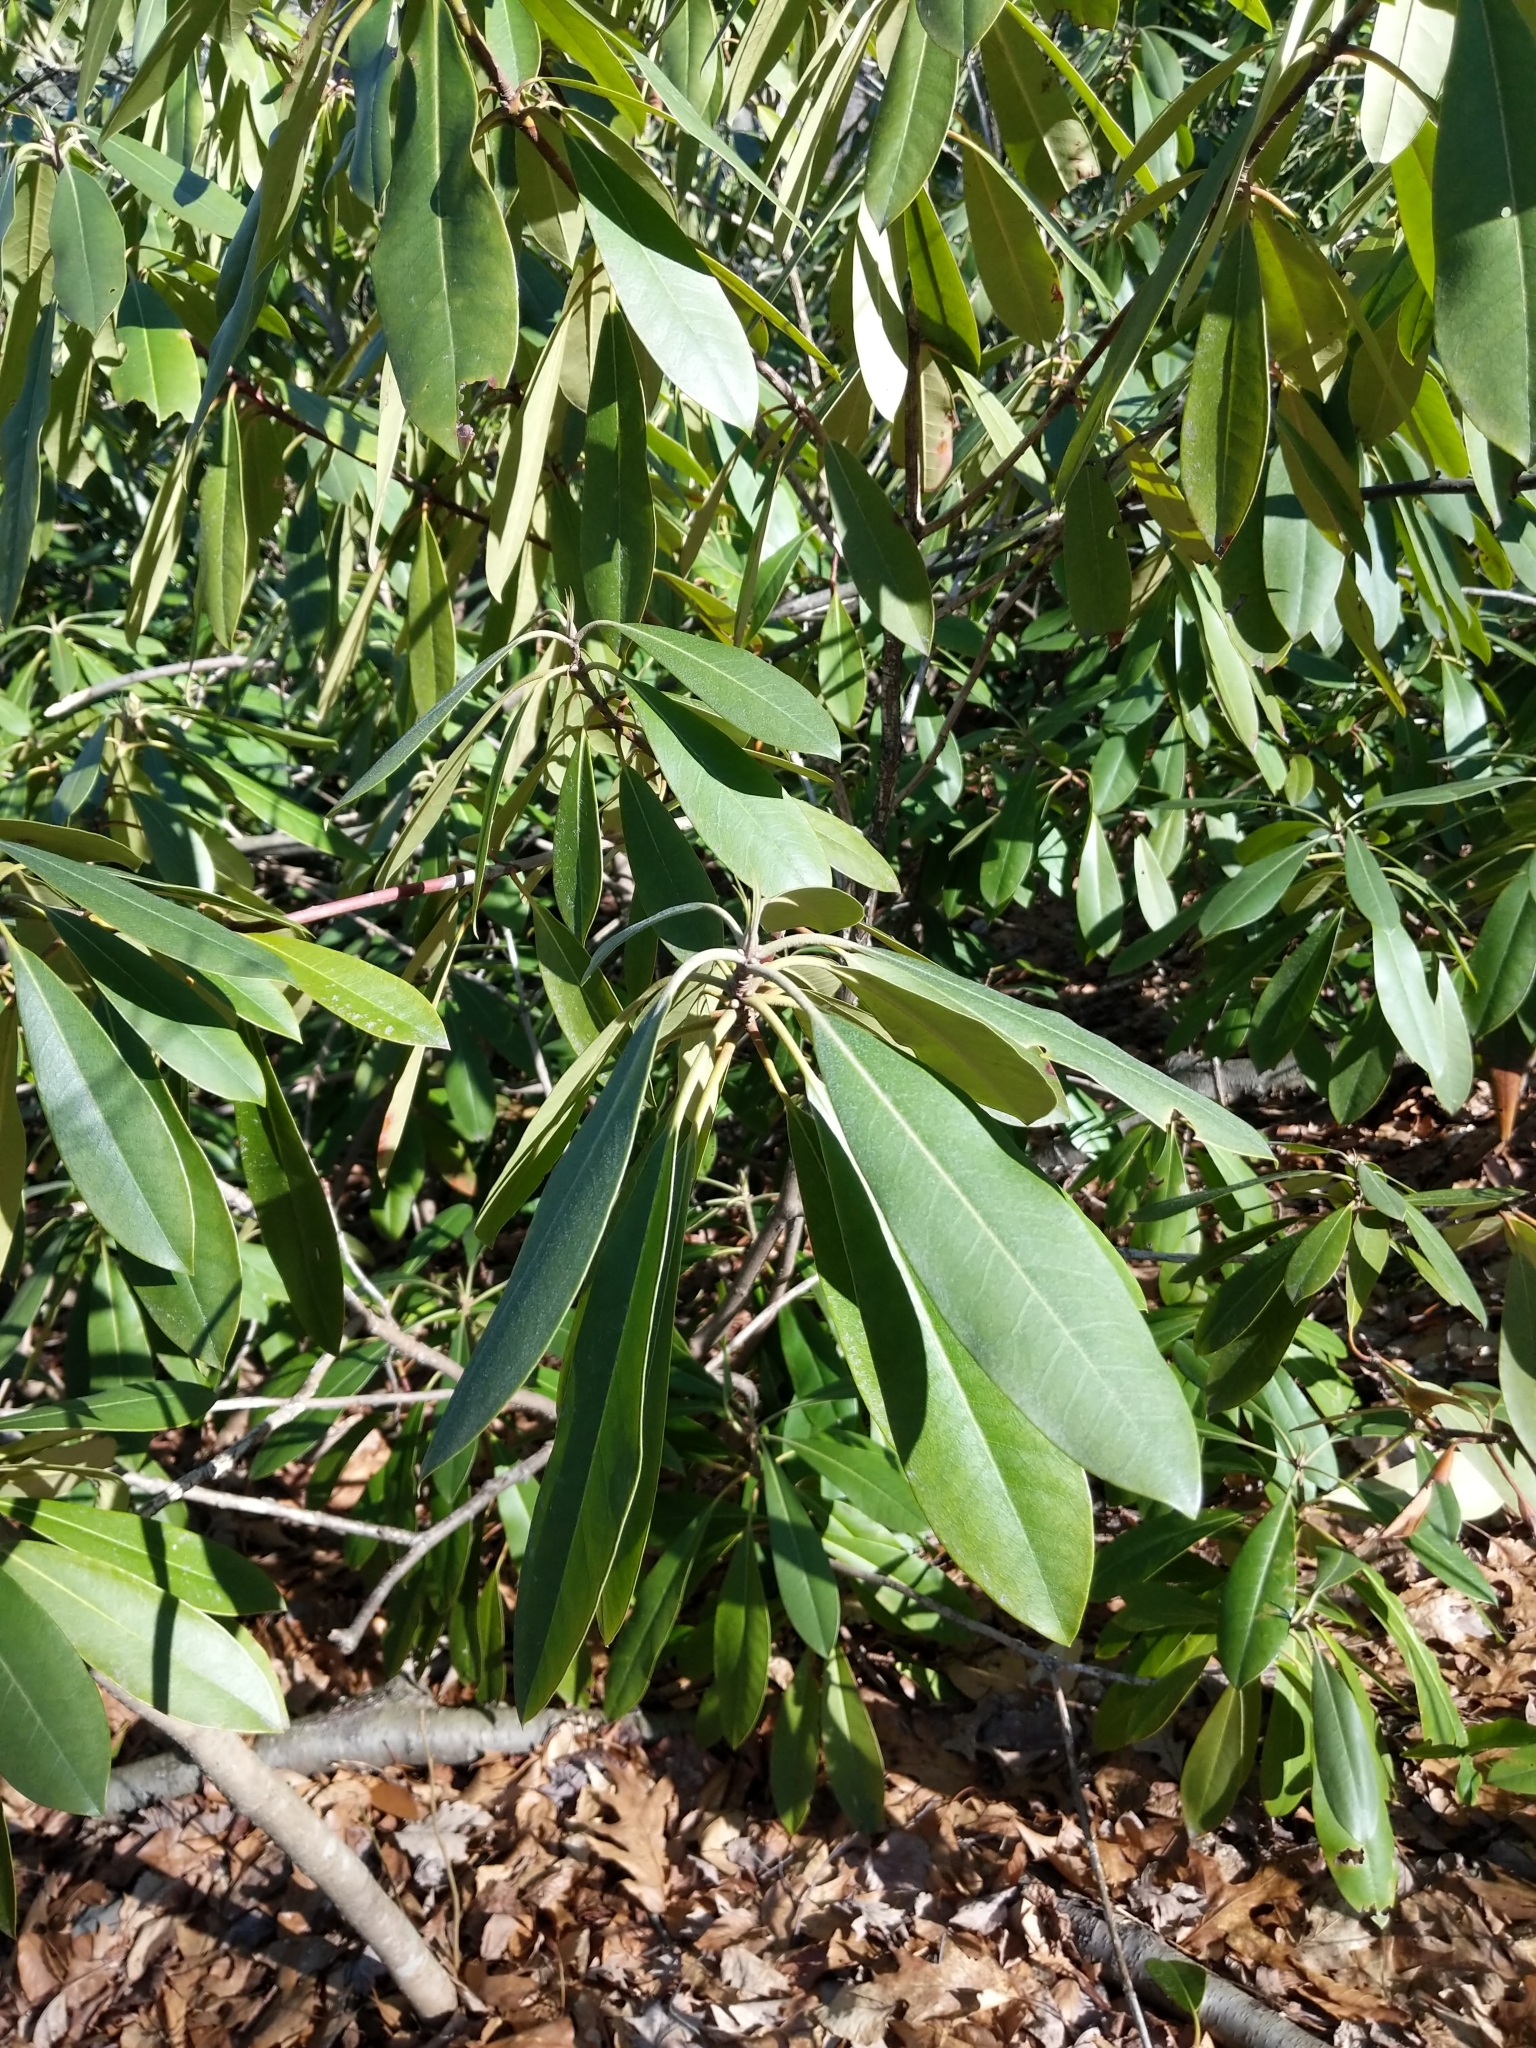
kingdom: Plantae
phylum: Tracheophyta
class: Magnoliopsida
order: Ericales
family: Ericaceae
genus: Rhododendron
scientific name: Rhododendron maximum
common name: Great rhododendron
